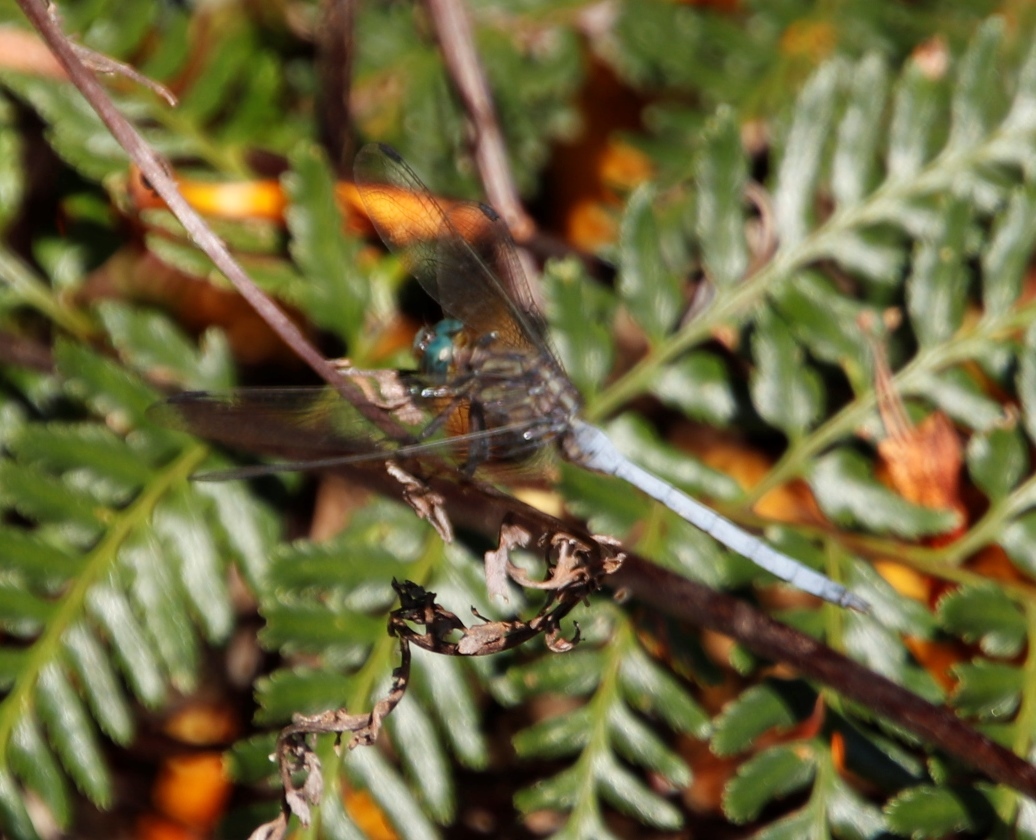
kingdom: Animalia
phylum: Arthropoda
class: Insecta
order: Odonata
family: Libellulidae
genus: Orthetrum
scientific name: Orthetrum julia
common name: Julia skimmer
